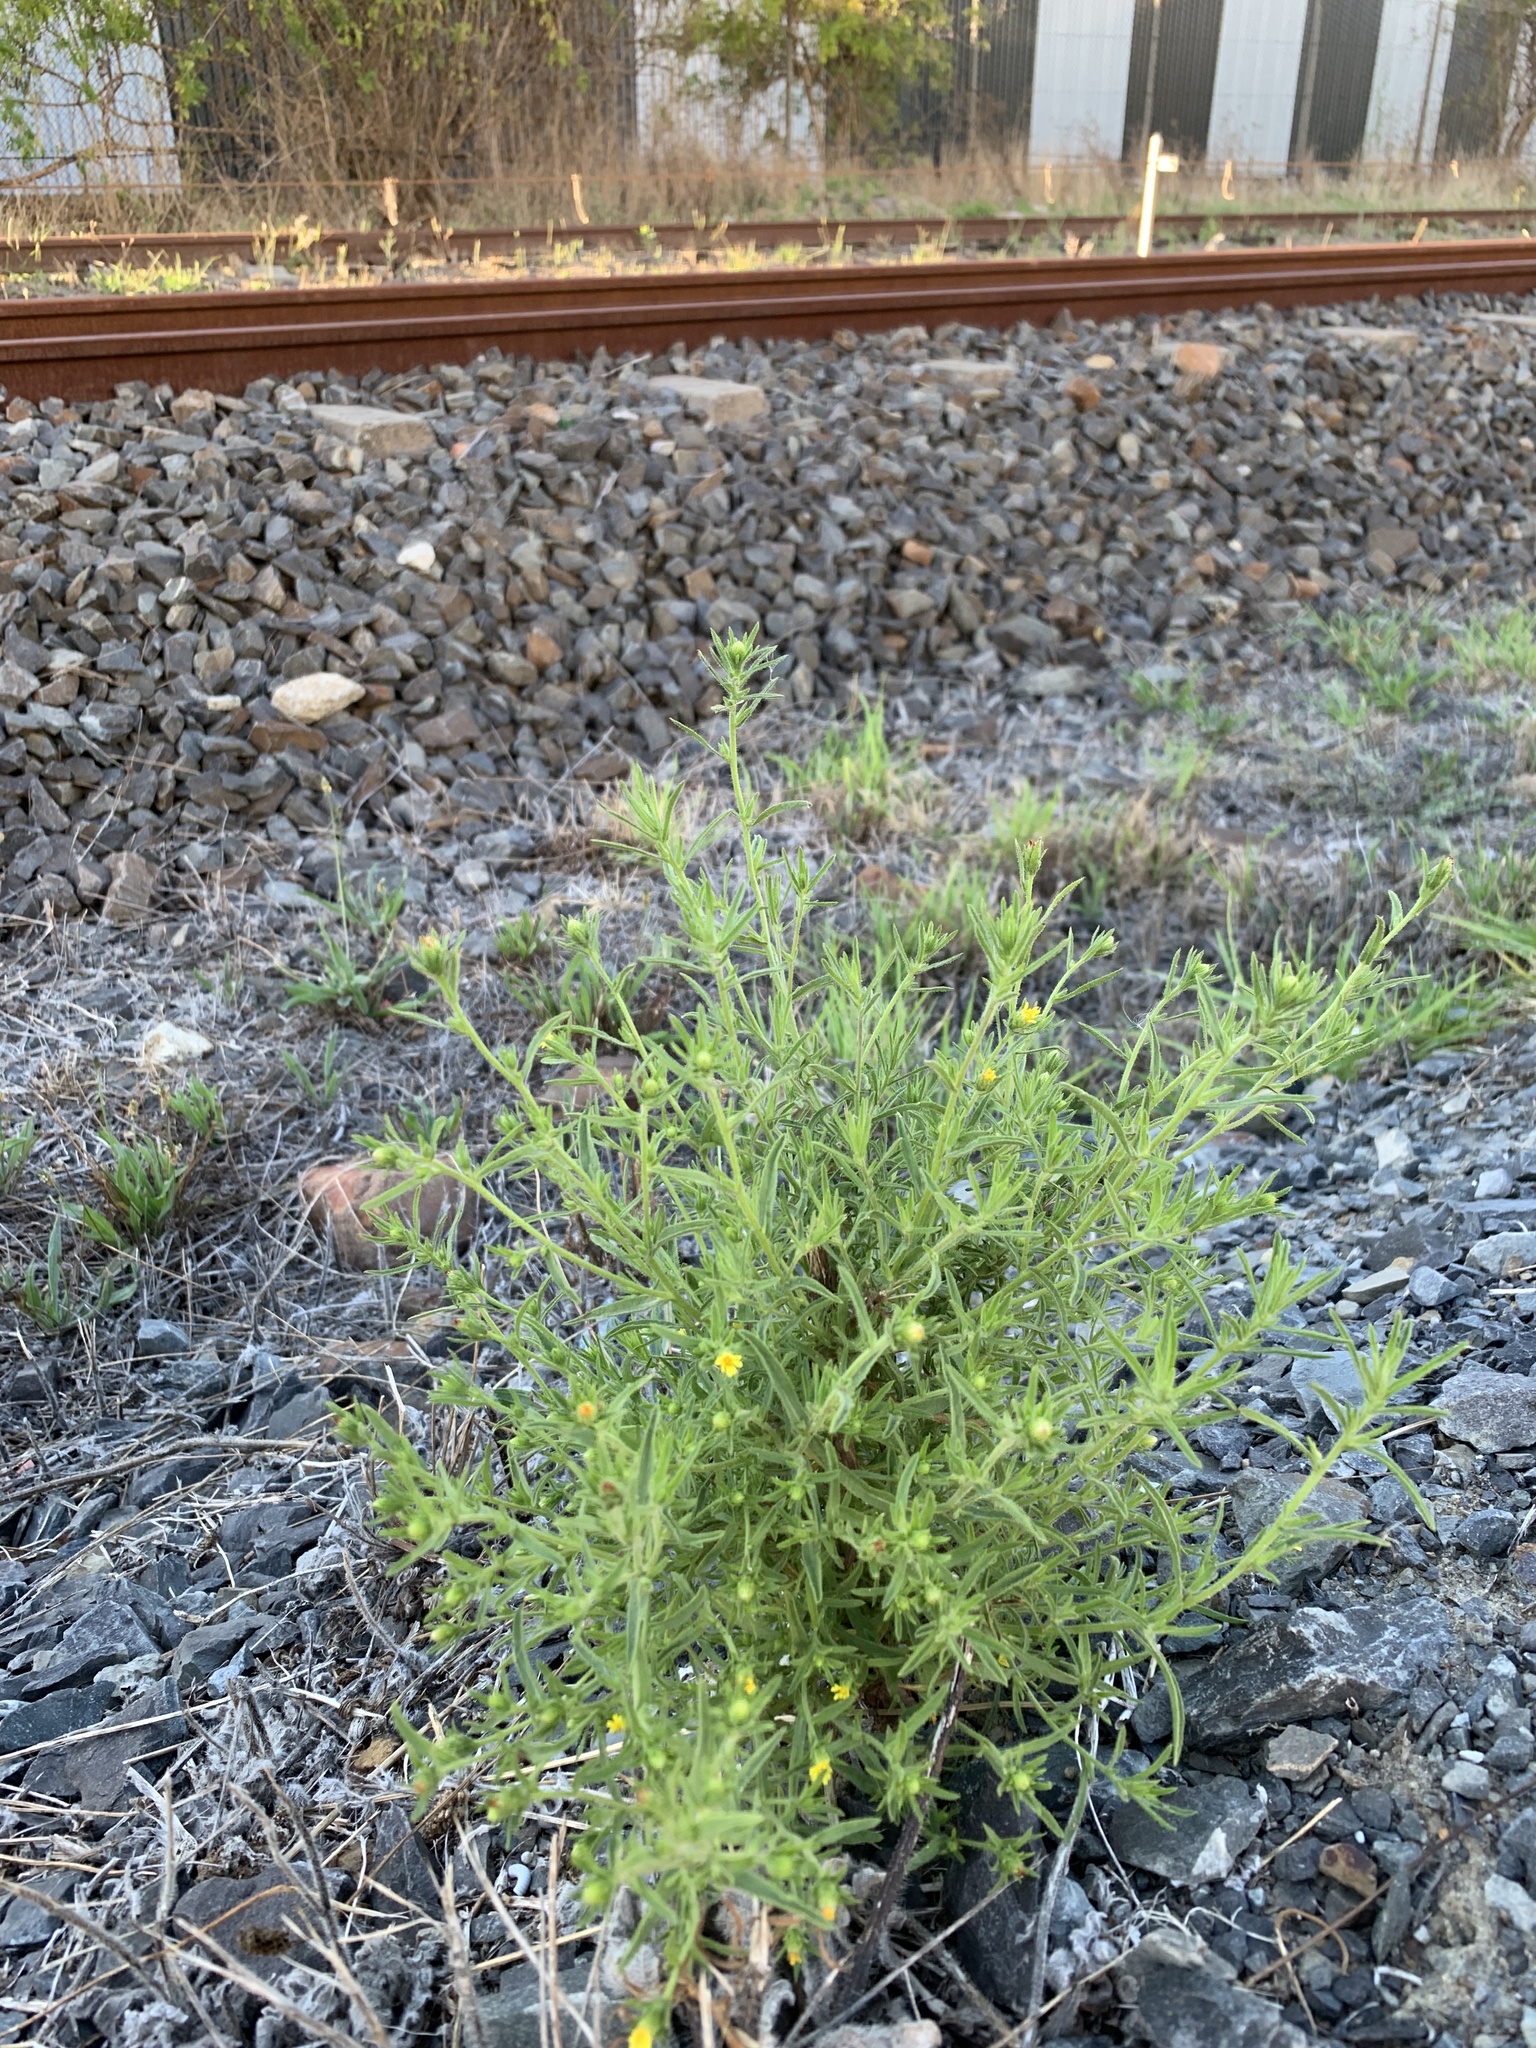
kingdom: Plantae
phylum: Tracheophyta
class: Magnoliopsida
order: Asterales
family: Asteraceae
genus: Dittrichia
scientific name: Dittrichia graveolens
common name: Stinking fleabane
